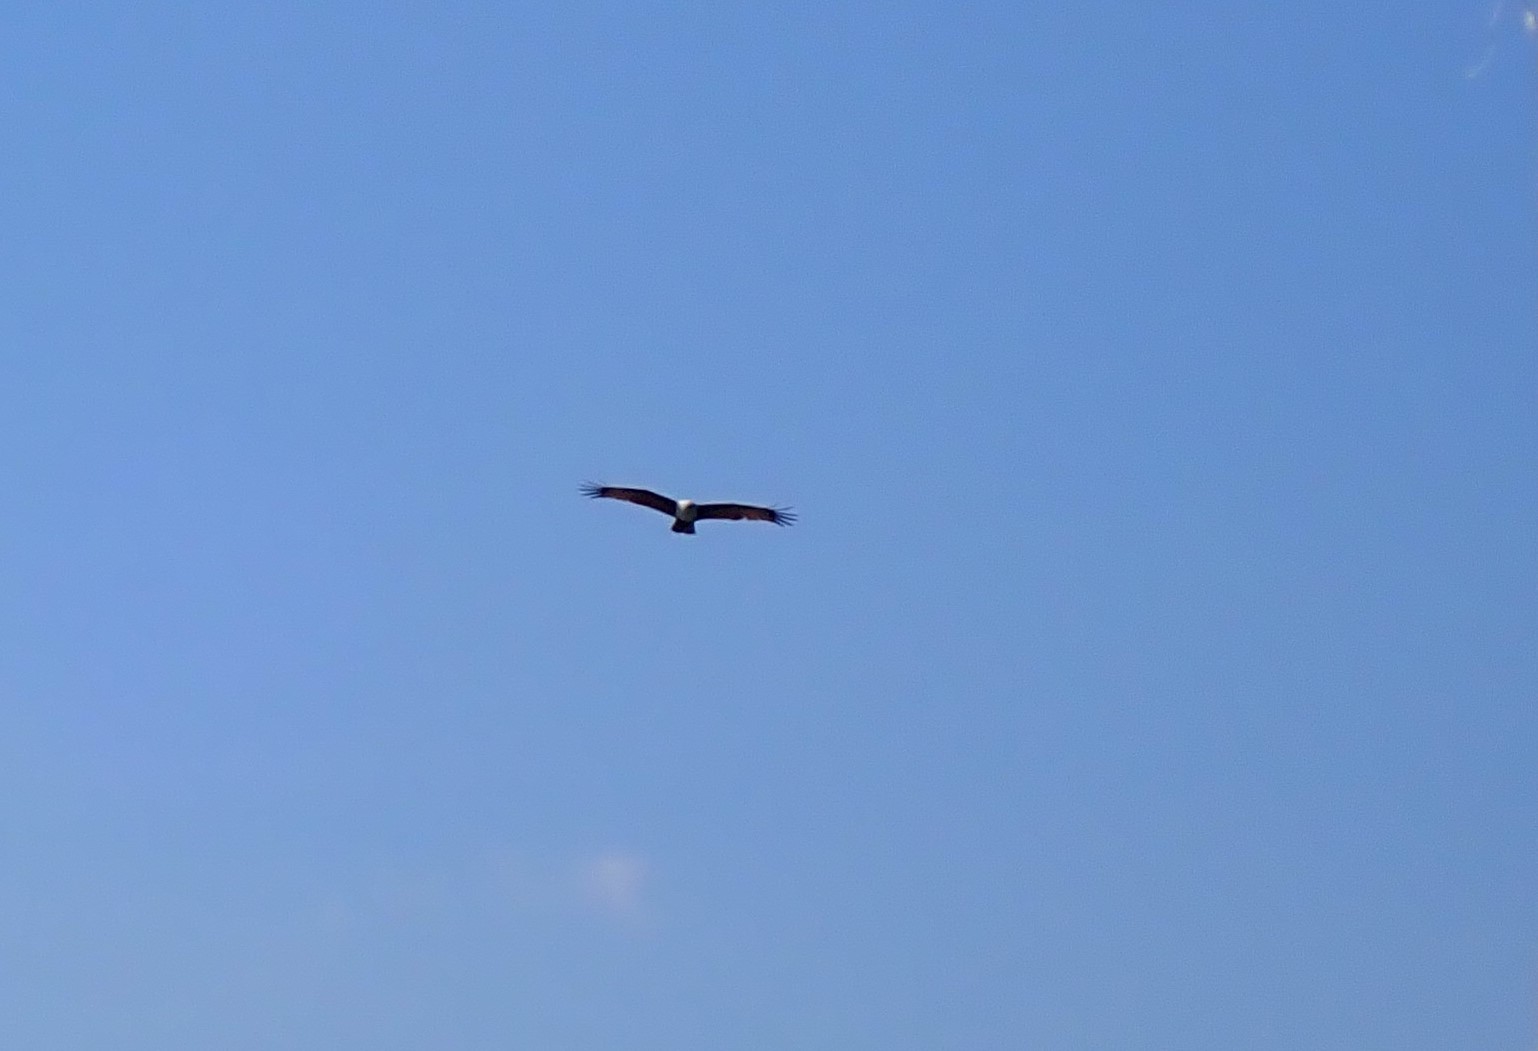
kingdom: Animalia
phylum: Chordata
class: Aves
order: Accipitriformes
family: Accipitridae
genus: Haliastur
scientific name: Haliastur indus
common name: Brahminy kite
